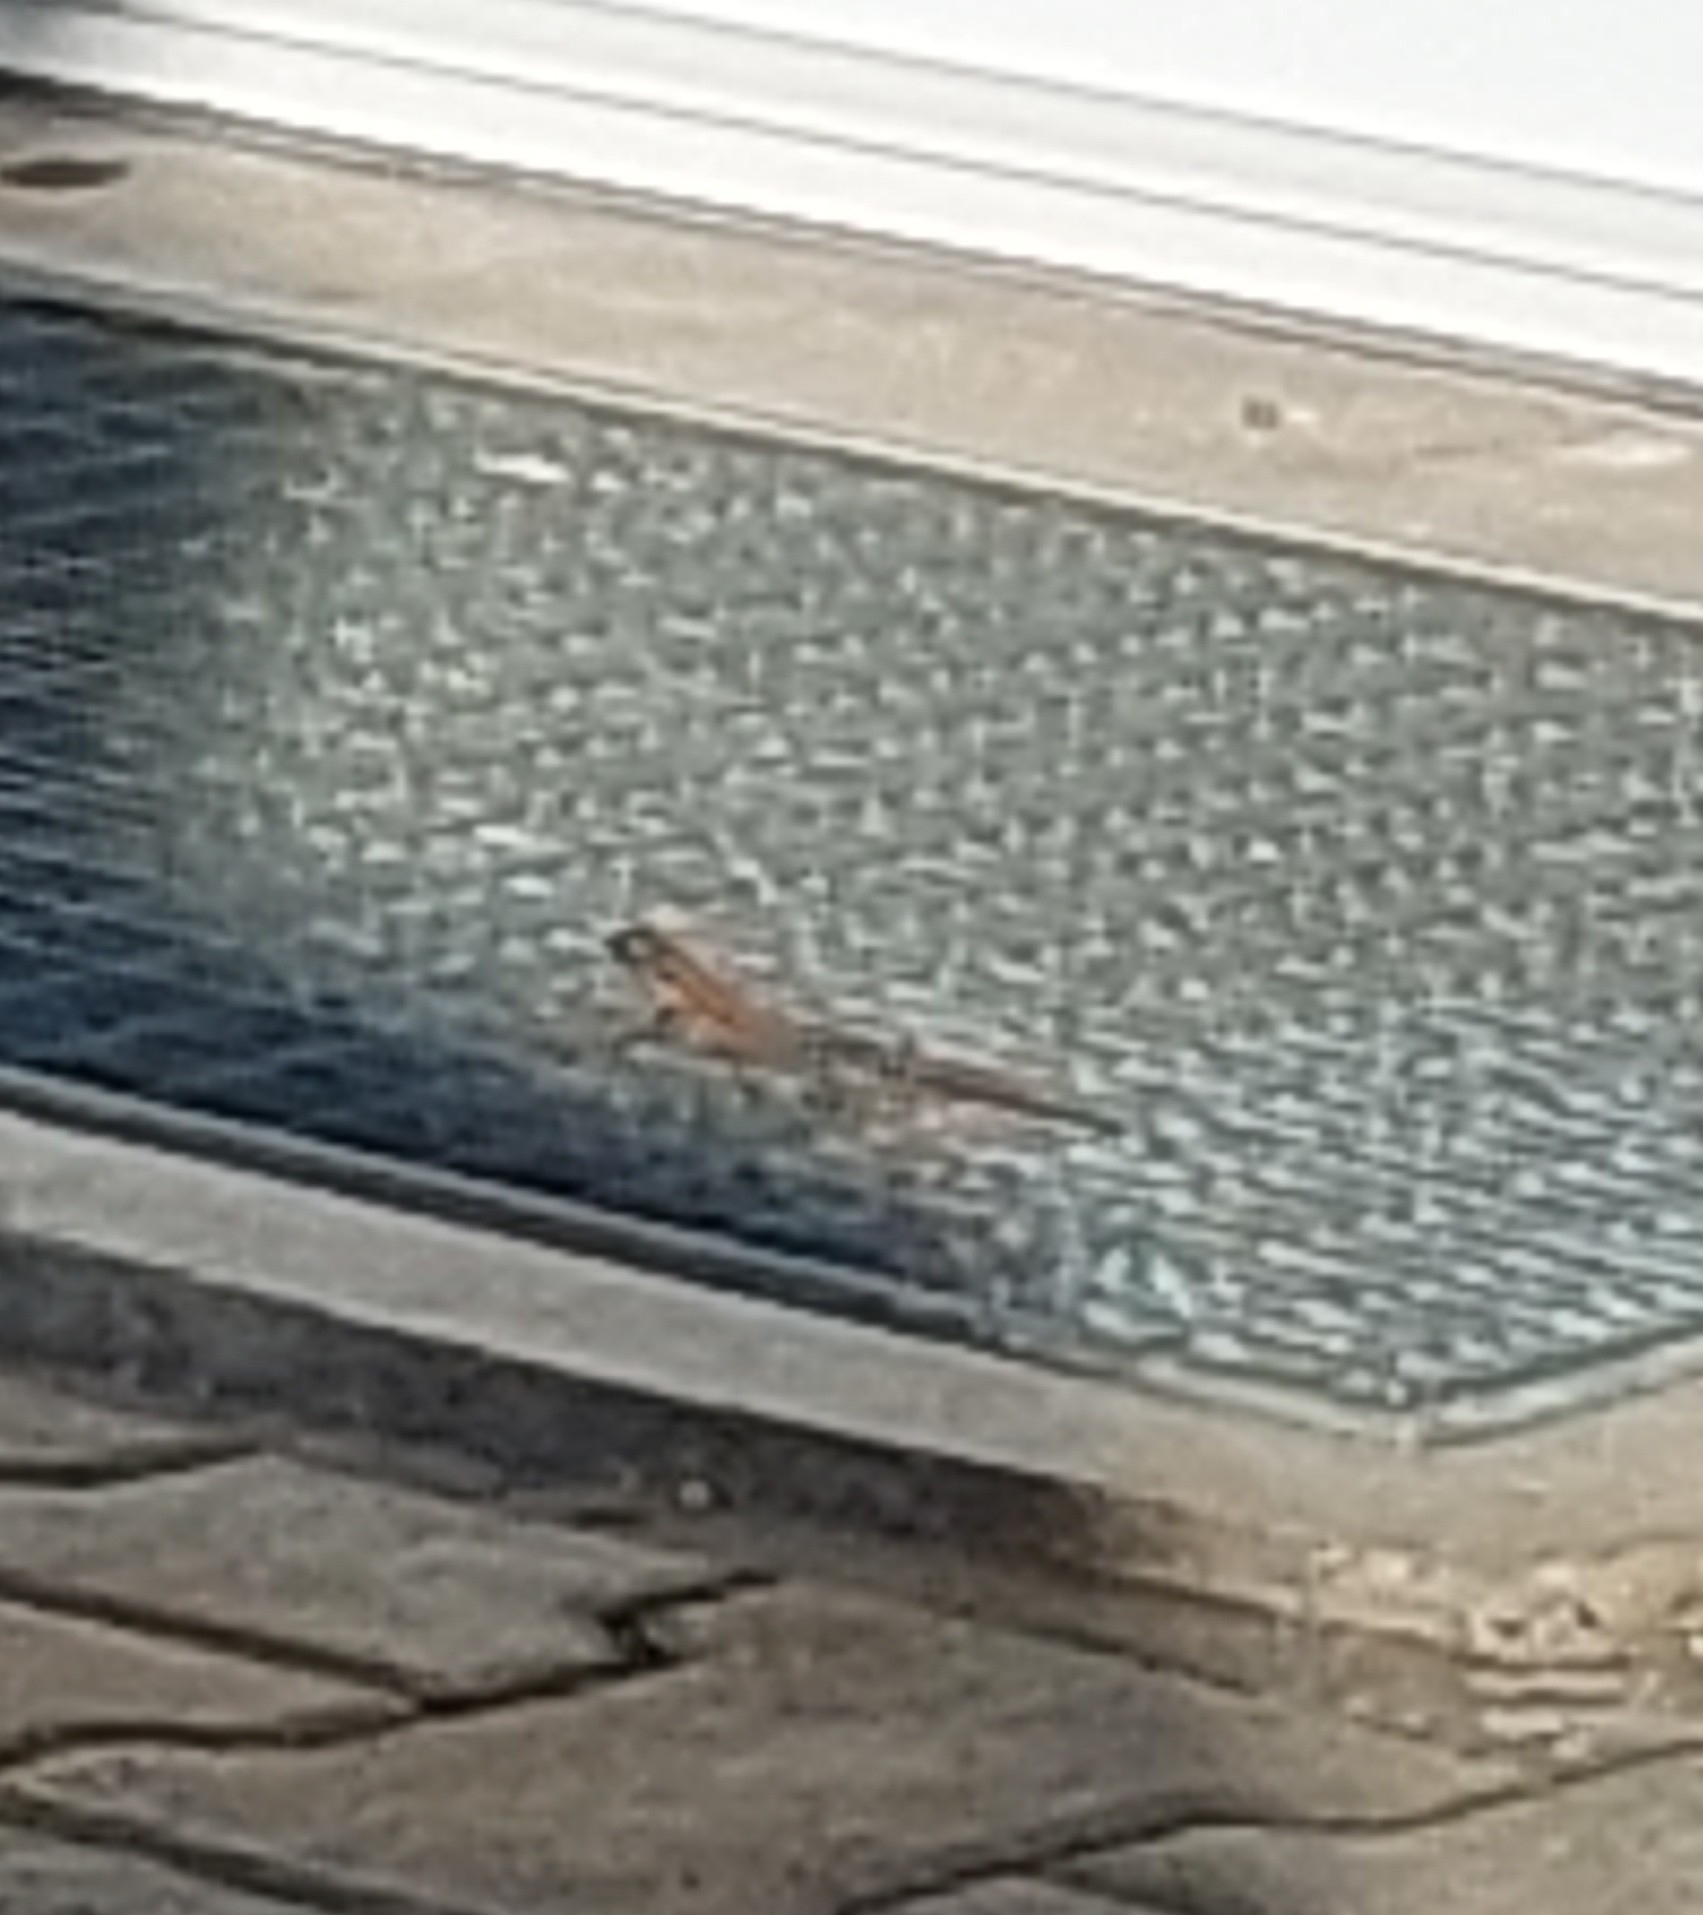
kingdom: Animalia
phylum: Chordata
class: Squamata
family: Lacertidae
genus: Podarcis
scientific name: Podarcis muralis
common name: Common wall lizard
